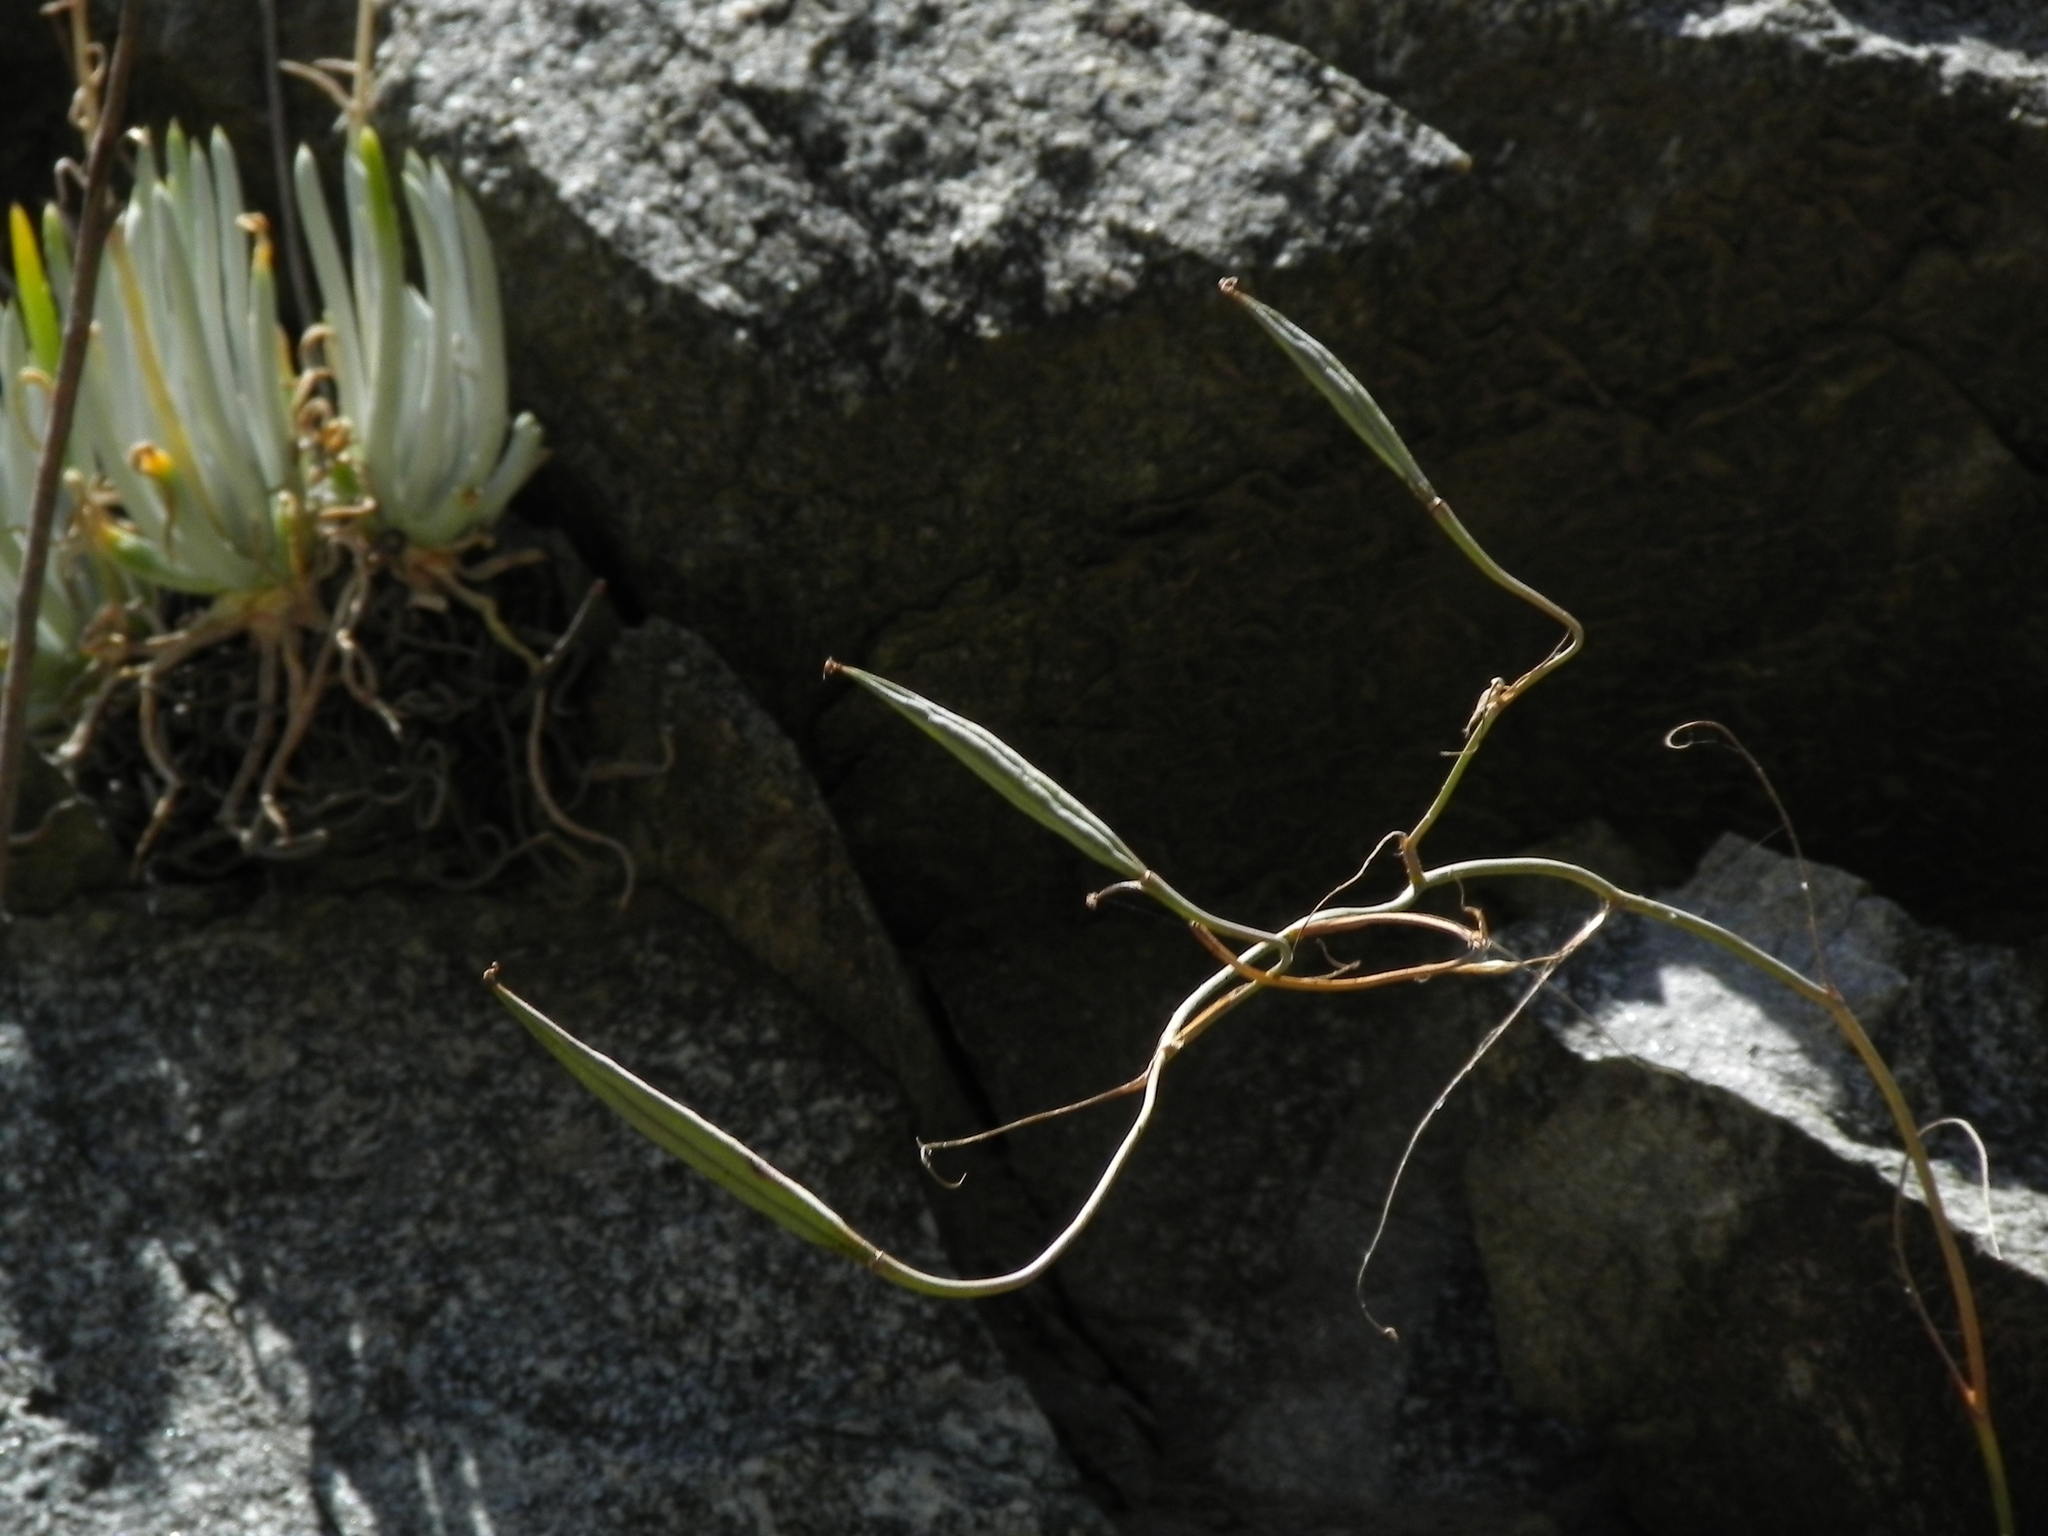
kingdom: Plantae
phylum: Tracheophyta
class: Liliopsida
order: Liliales
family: Liliaceae
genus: Calochortus
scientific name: Calochortus plummerae
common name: Plummer's mariposa-lily
